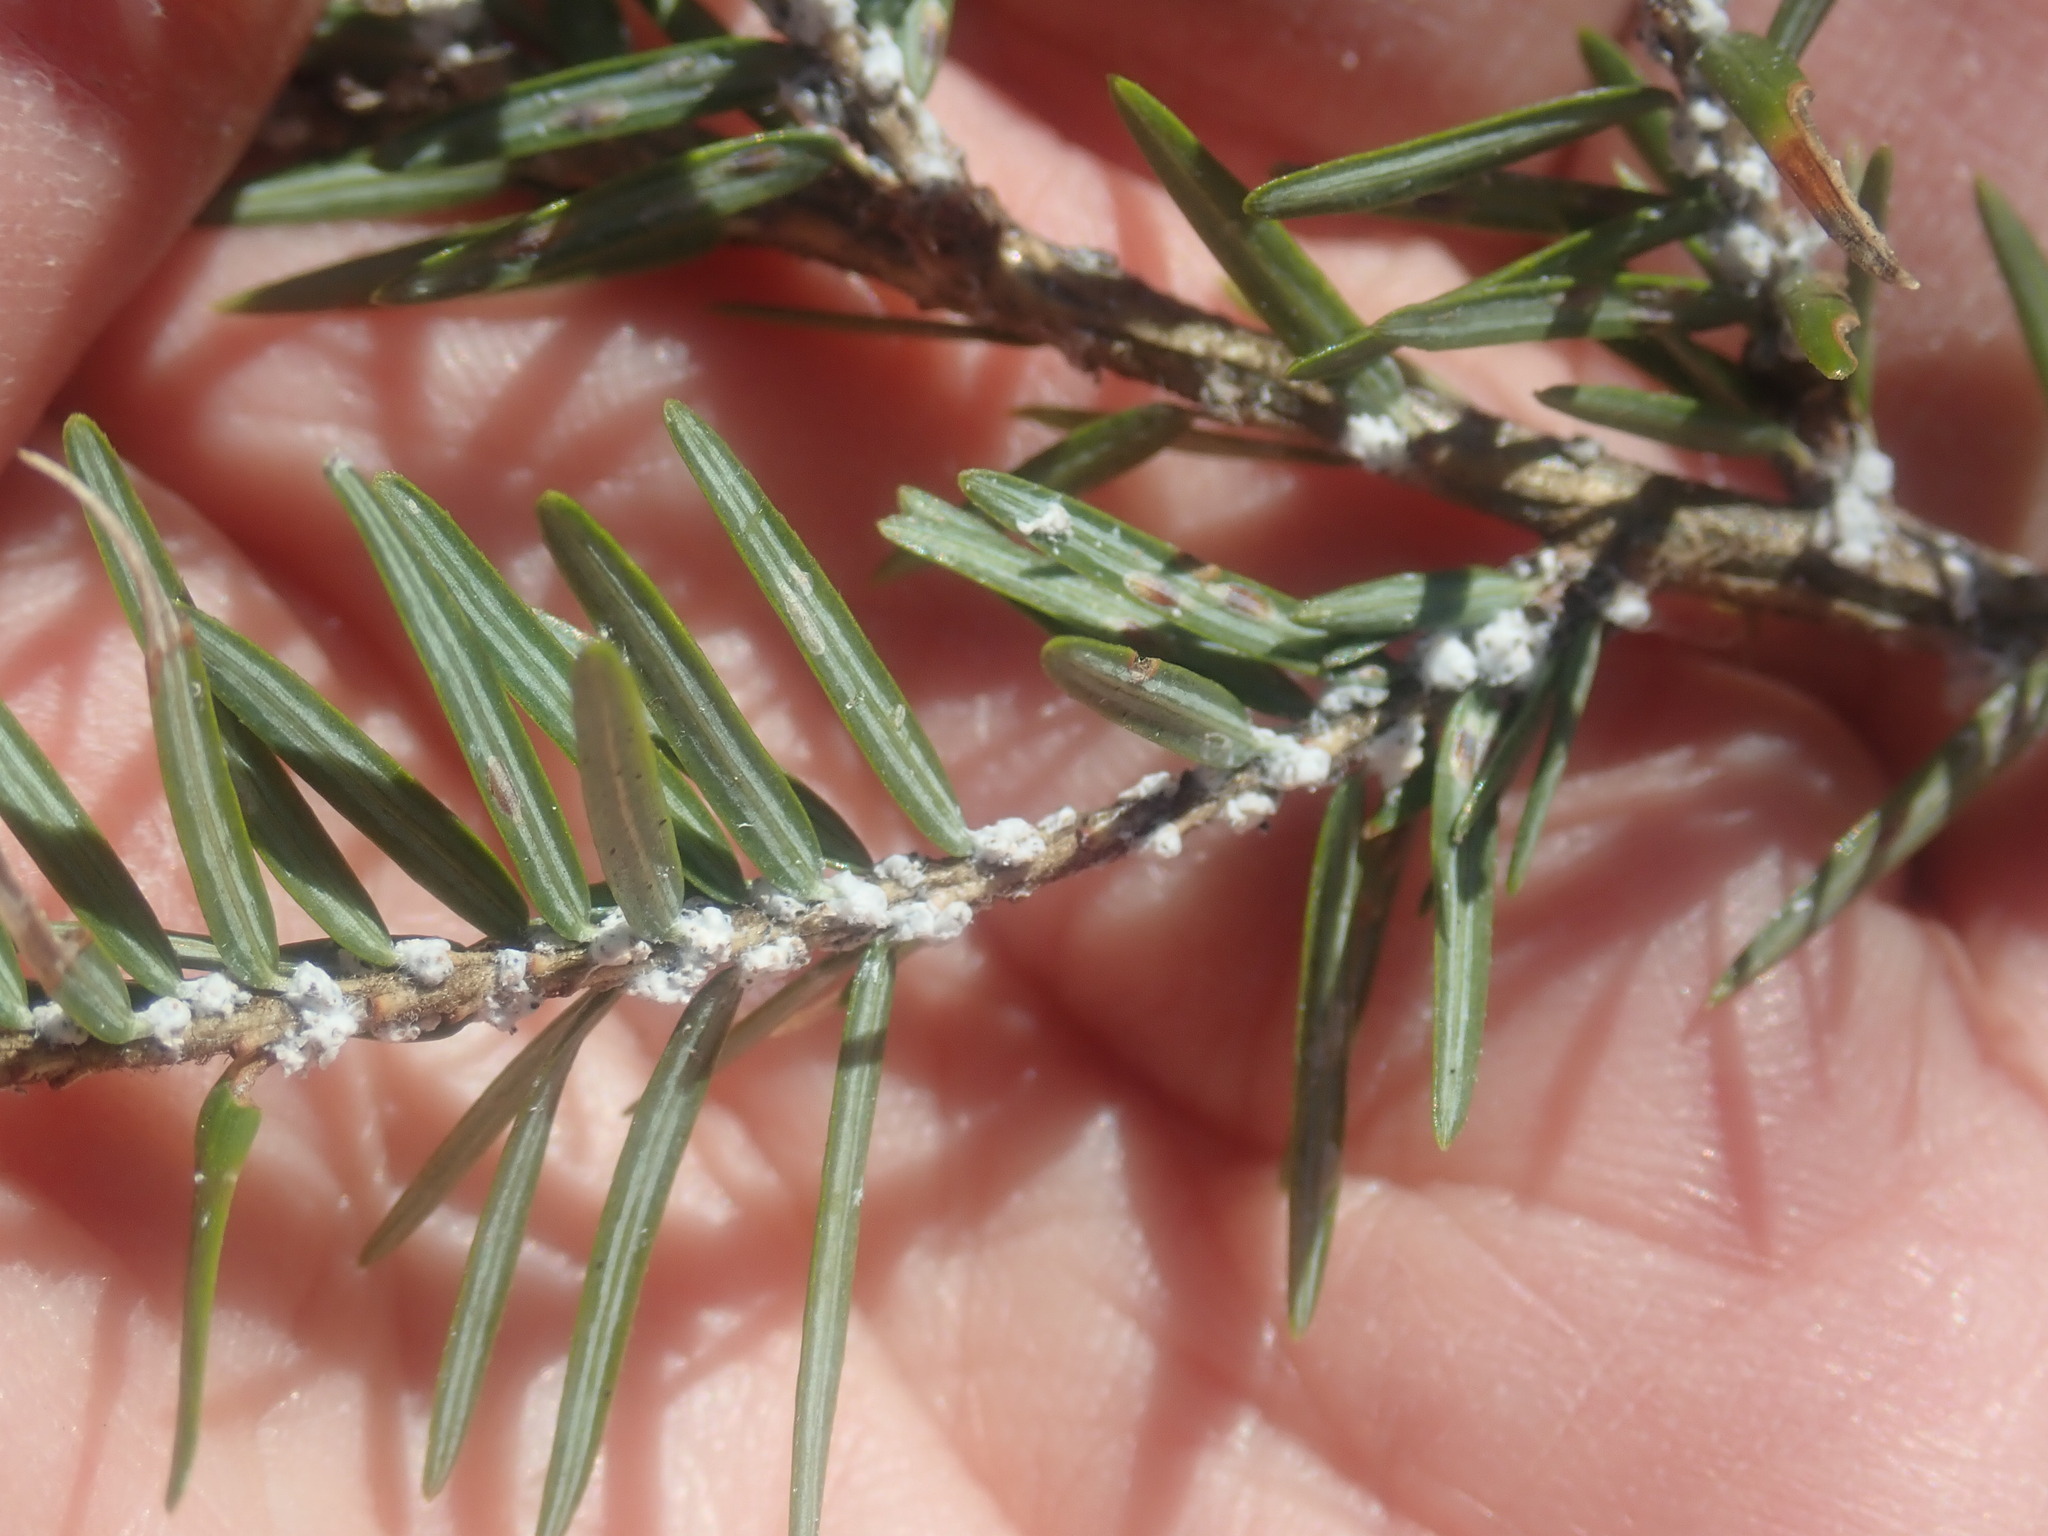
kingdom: Animalia
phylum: Arthropoda
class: Insecta
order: Hemiptera
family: Adelgidae
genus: Adelges
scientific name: Adelges tsugae
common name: Hemlock woolly adelgid
